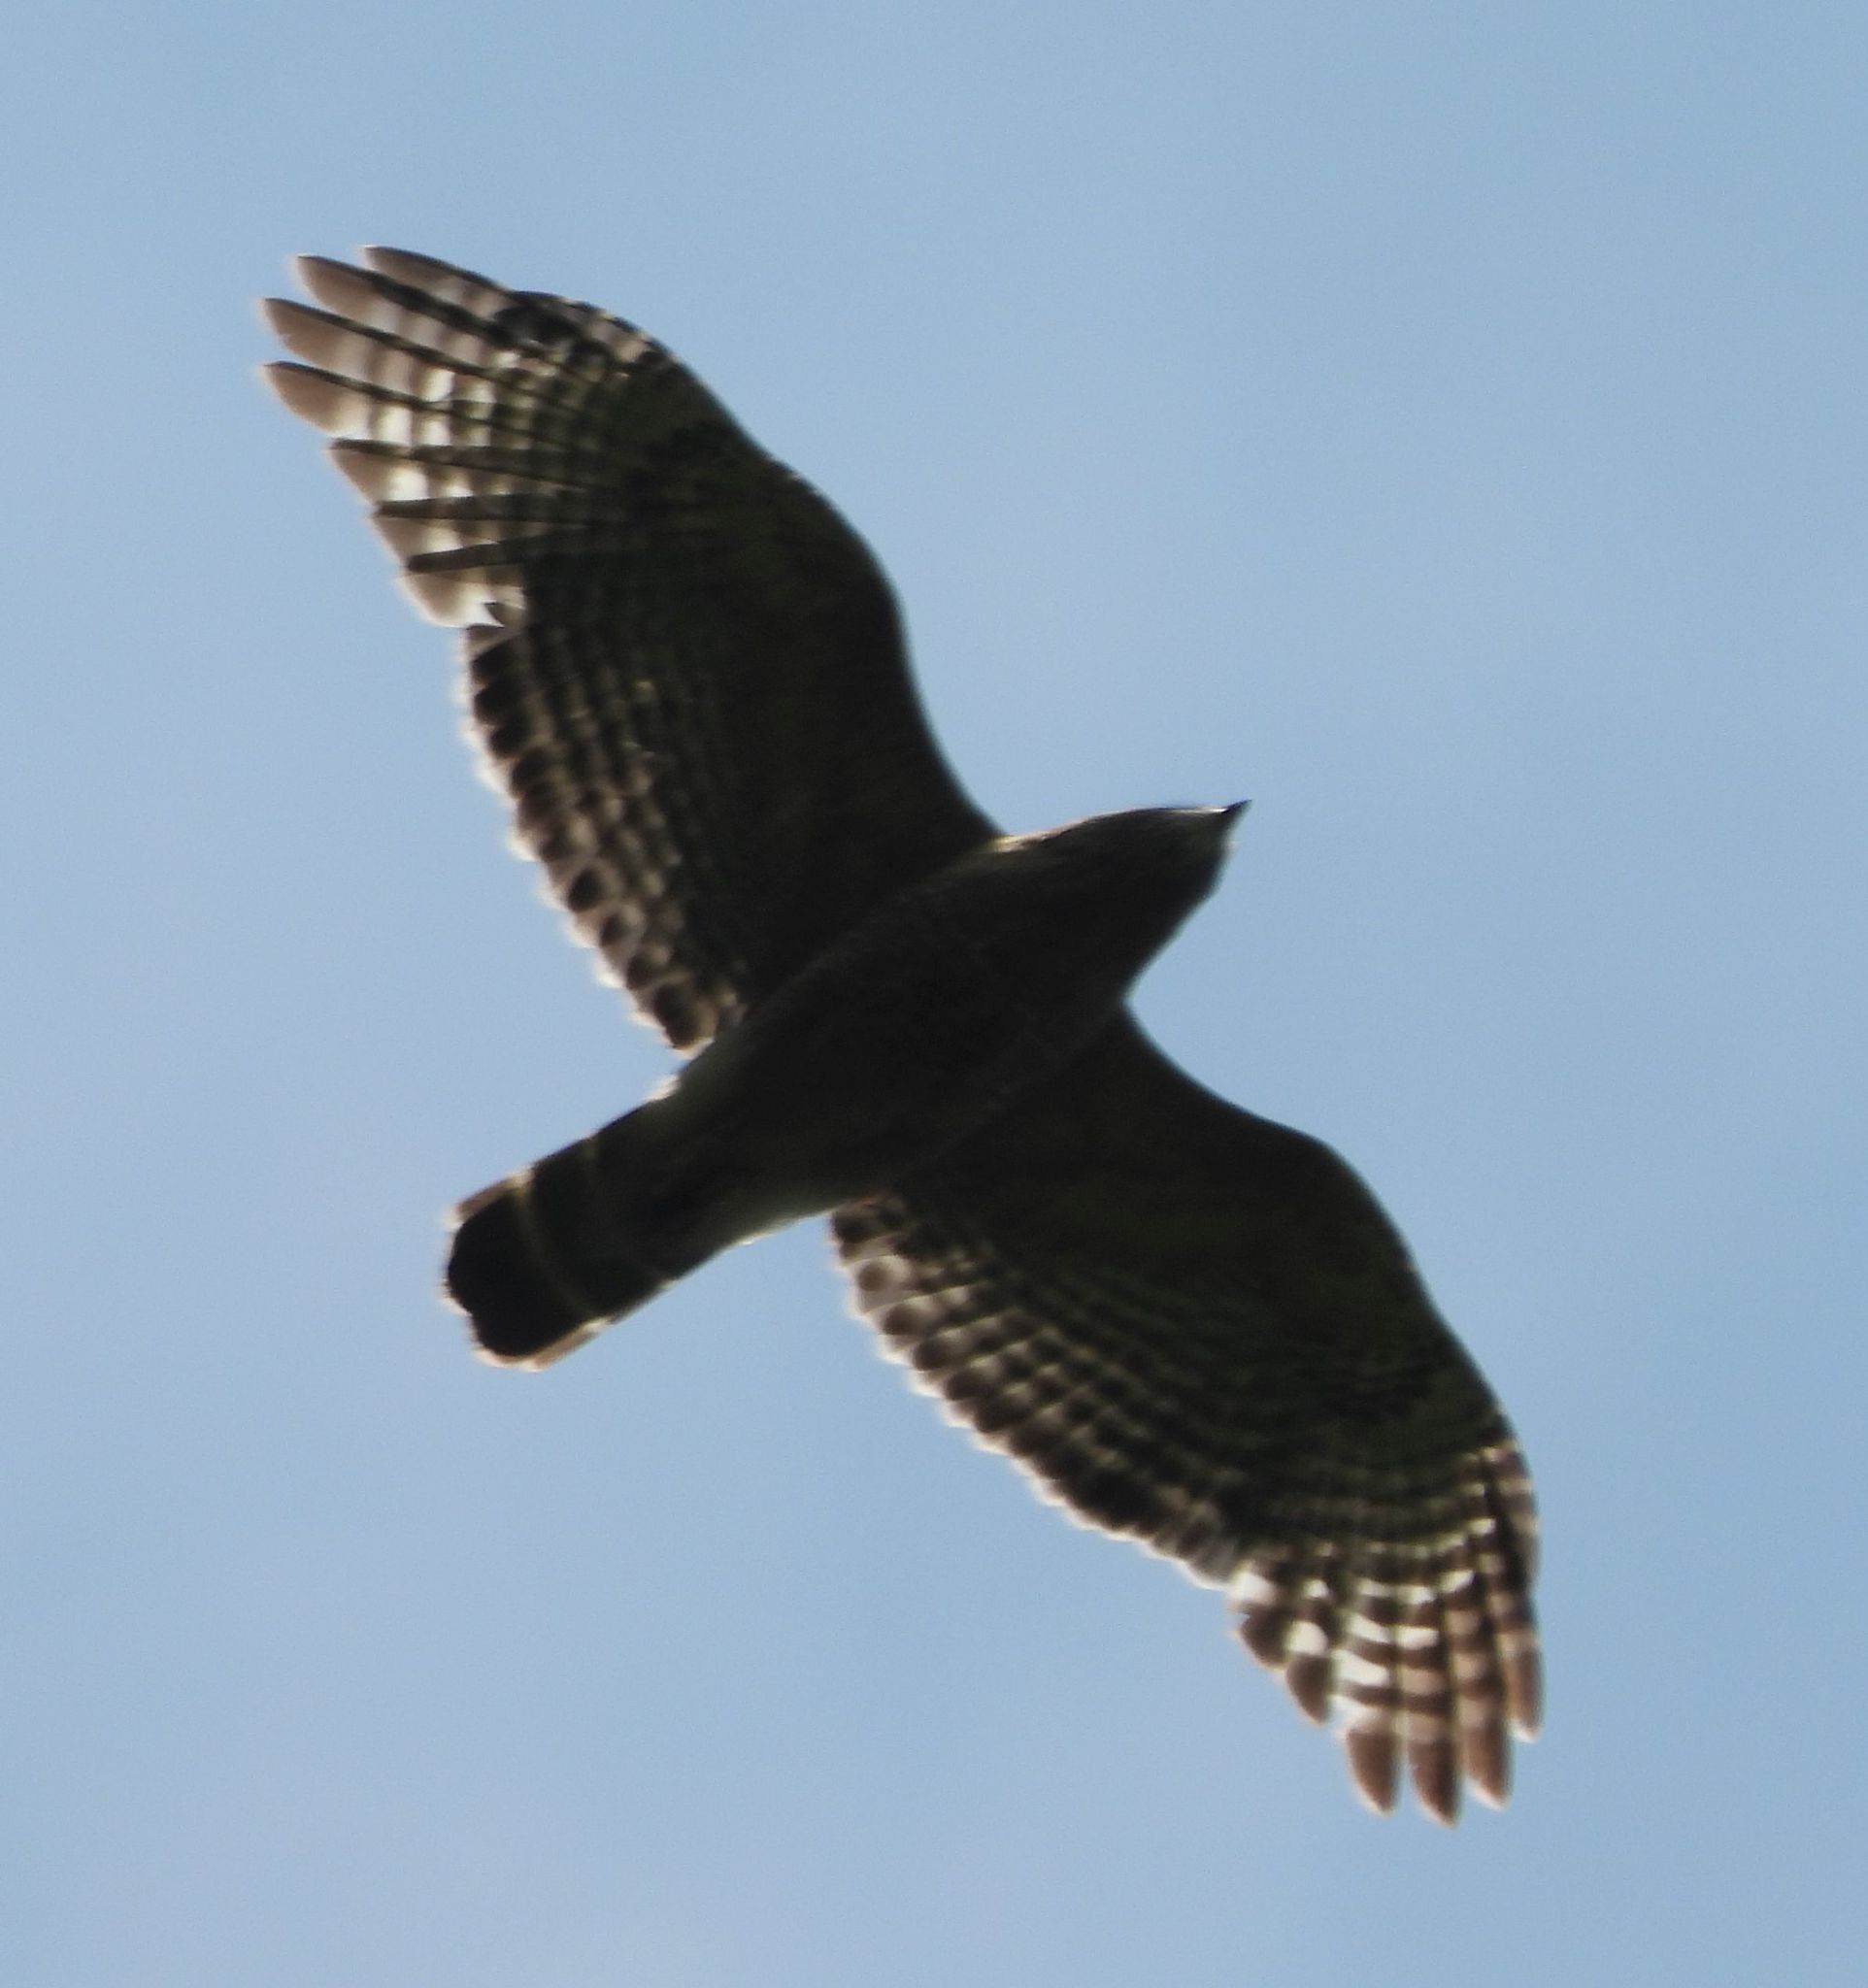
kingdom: Animalia
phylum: Chordata
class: Aves
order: Accipitriformes
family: Accipitridae
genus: Buteo
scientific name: Buteo lineatus
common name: Red-shouldered hawk
